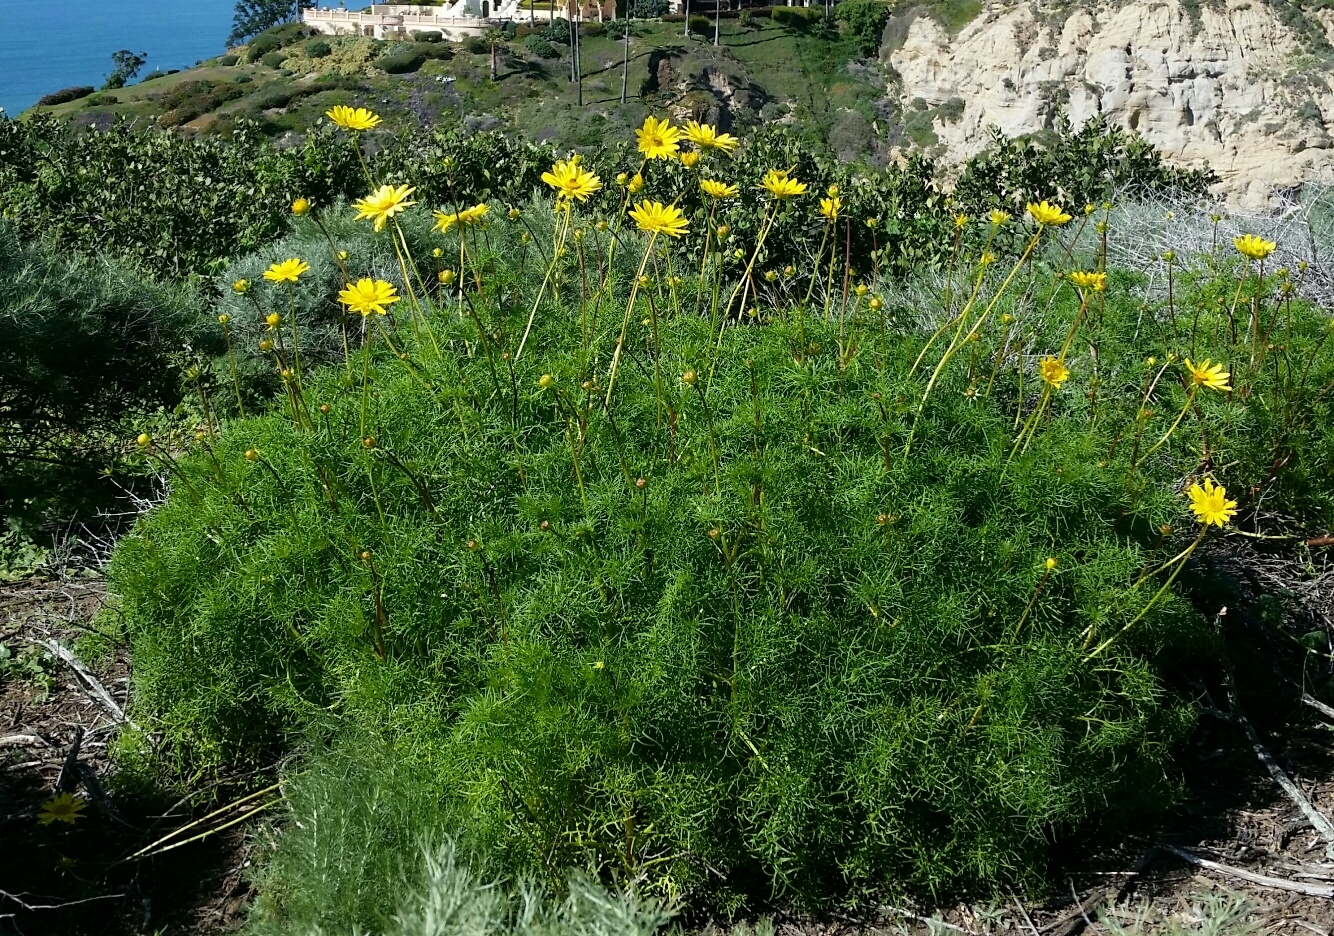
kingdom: Plantae
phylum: Tracheophyta
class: Magnoliopsida
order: Asterales
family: Asteraceae
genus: Coreopsis
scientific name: Coreopsis maritima
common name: Sea-dahlia
